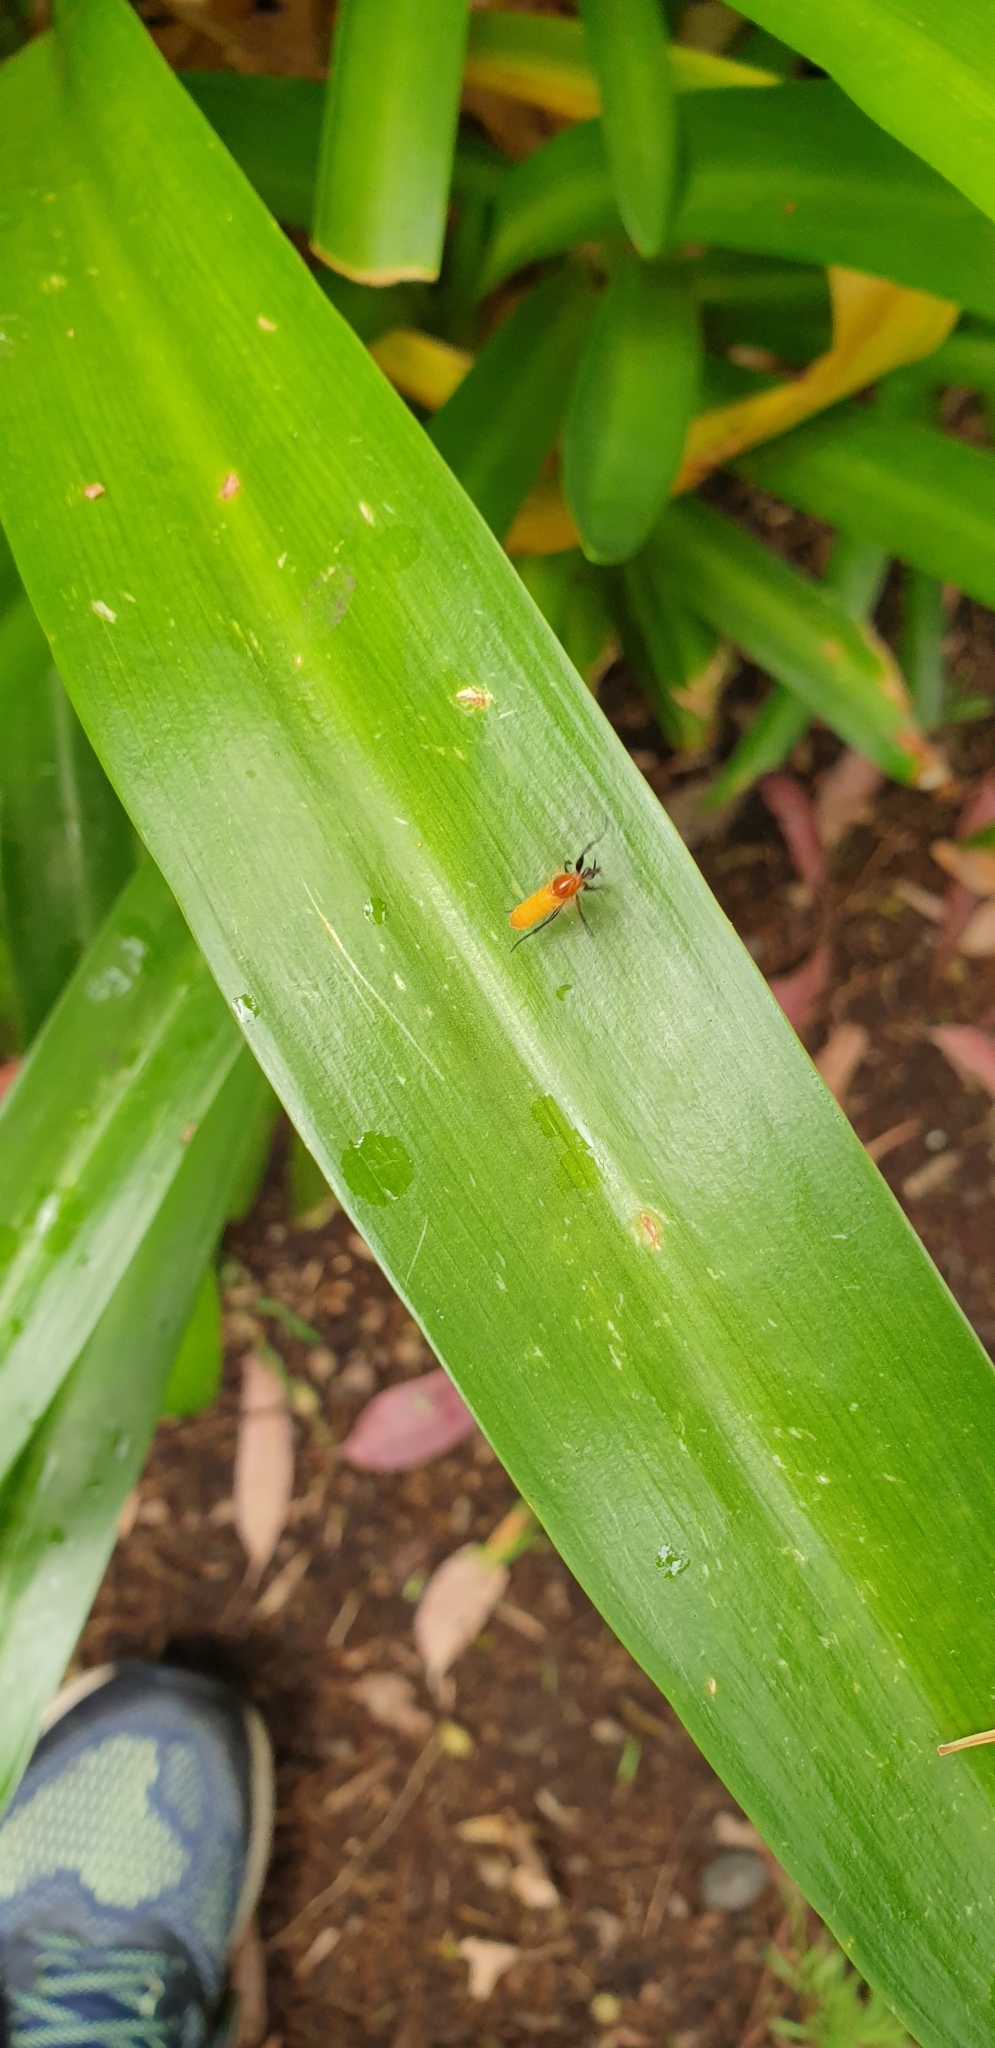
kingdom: Animalia
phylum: Arthropoda
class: Insecta
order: Diptera
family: Bibionidae
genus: Bibio
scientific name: Bibio imitator
